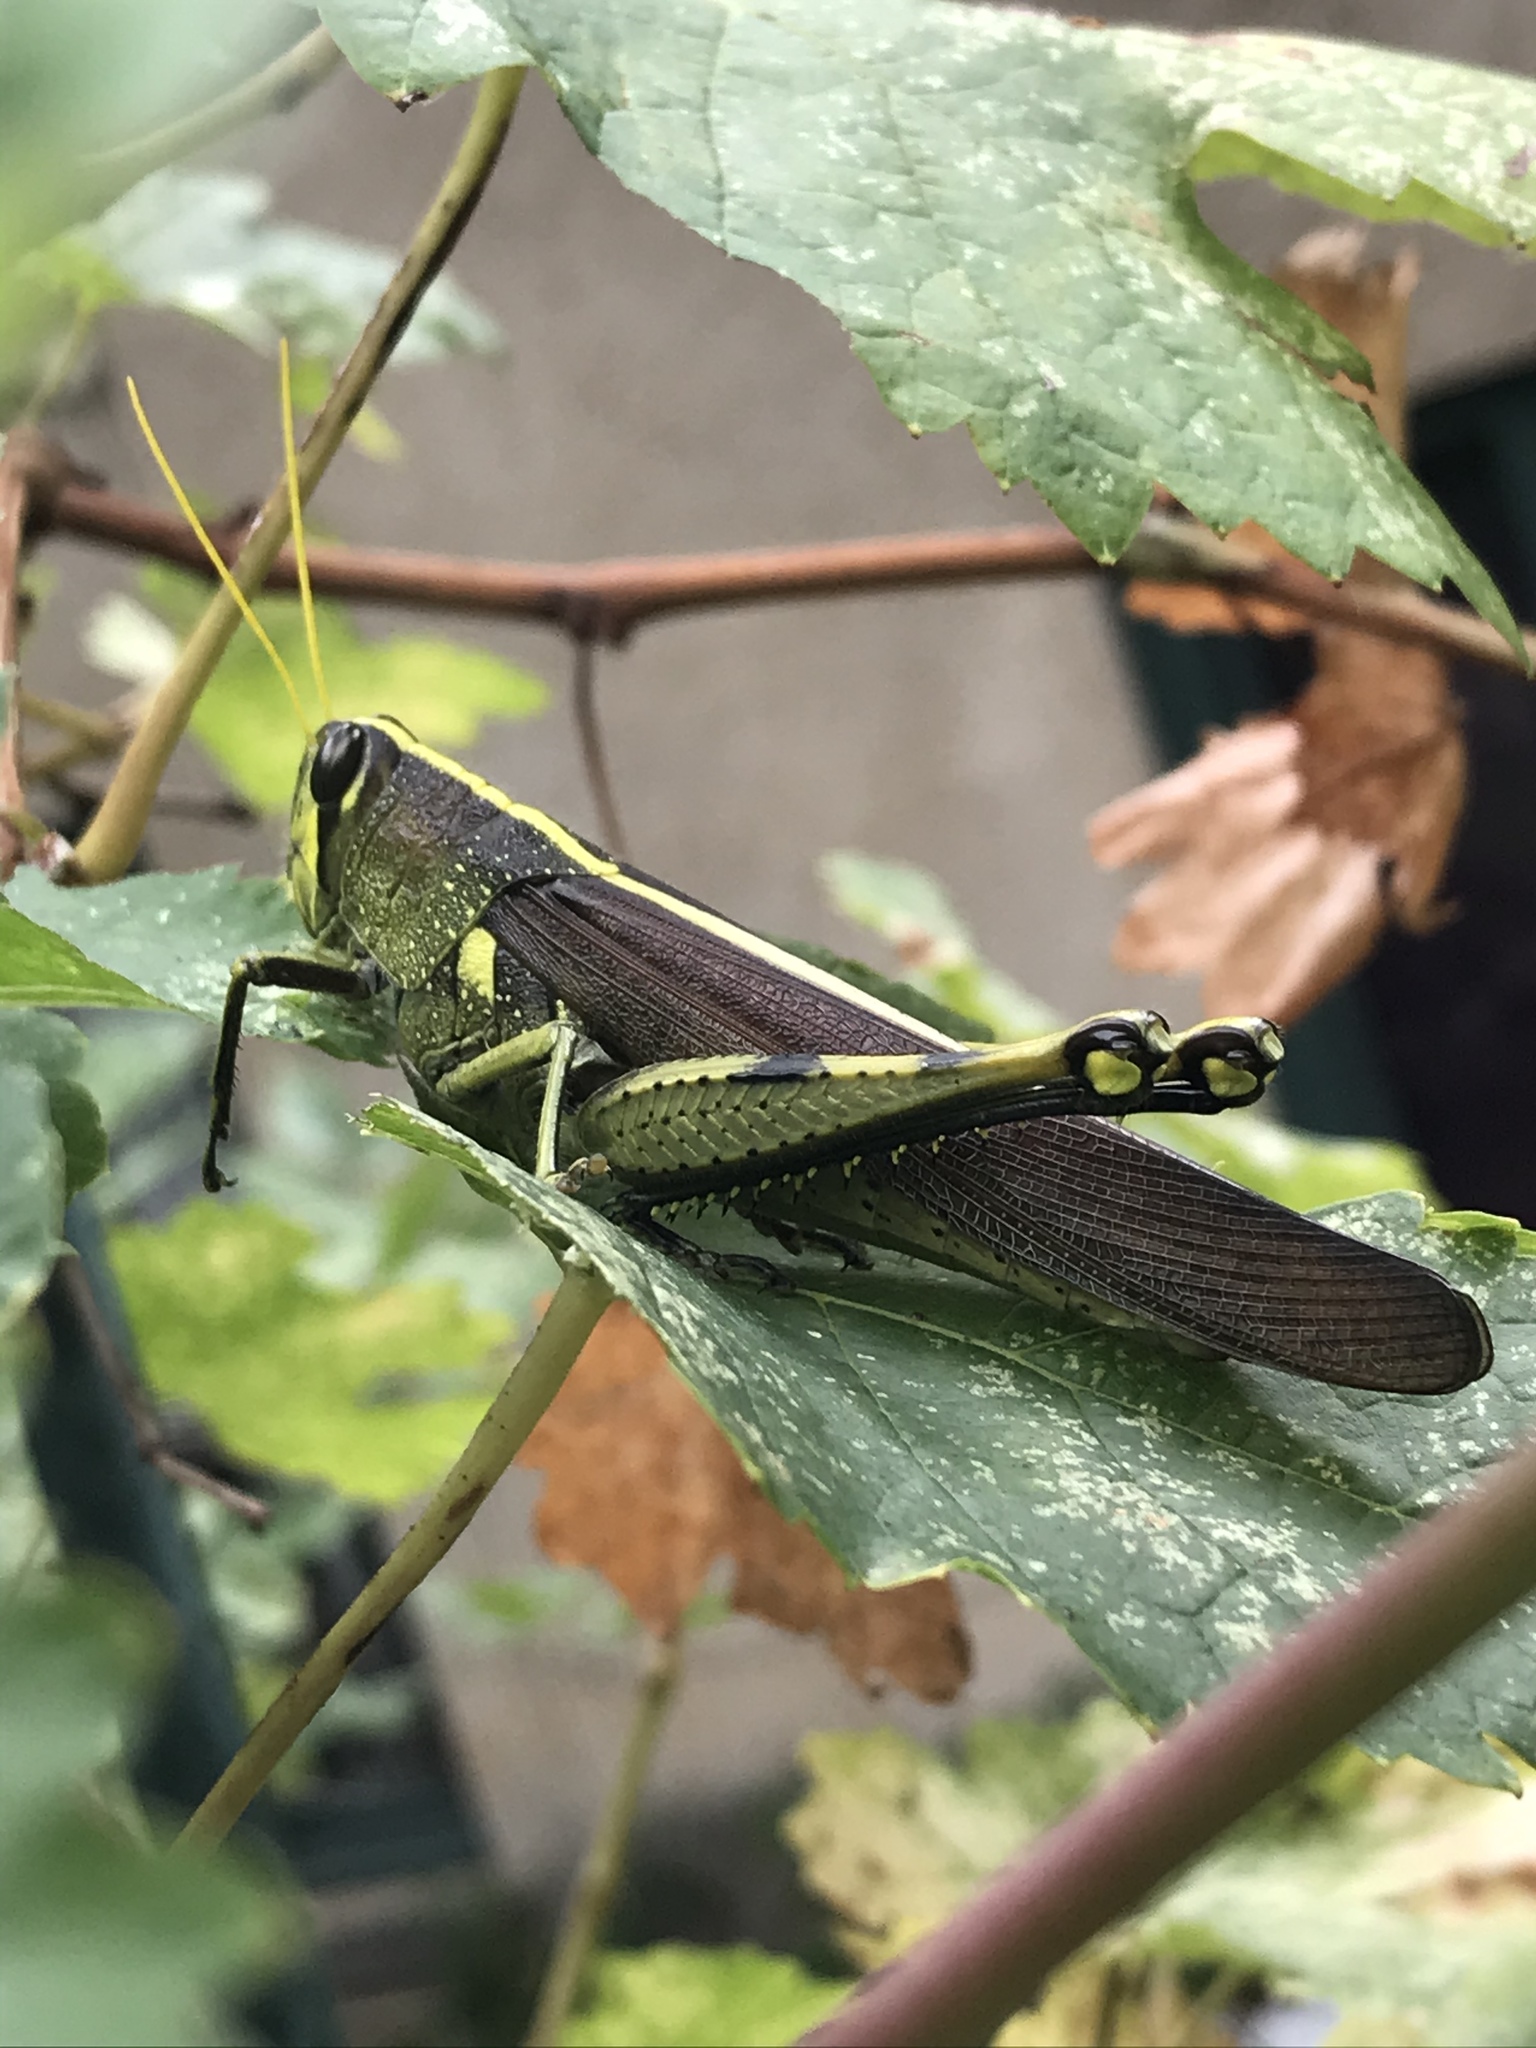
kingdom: Animalia
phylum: Arthropoda
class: Insecta
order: Orthoptera
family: Acrididae
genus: Schistocerca
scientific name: Schistocerca obscura
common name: Obscure bird grasshopper
